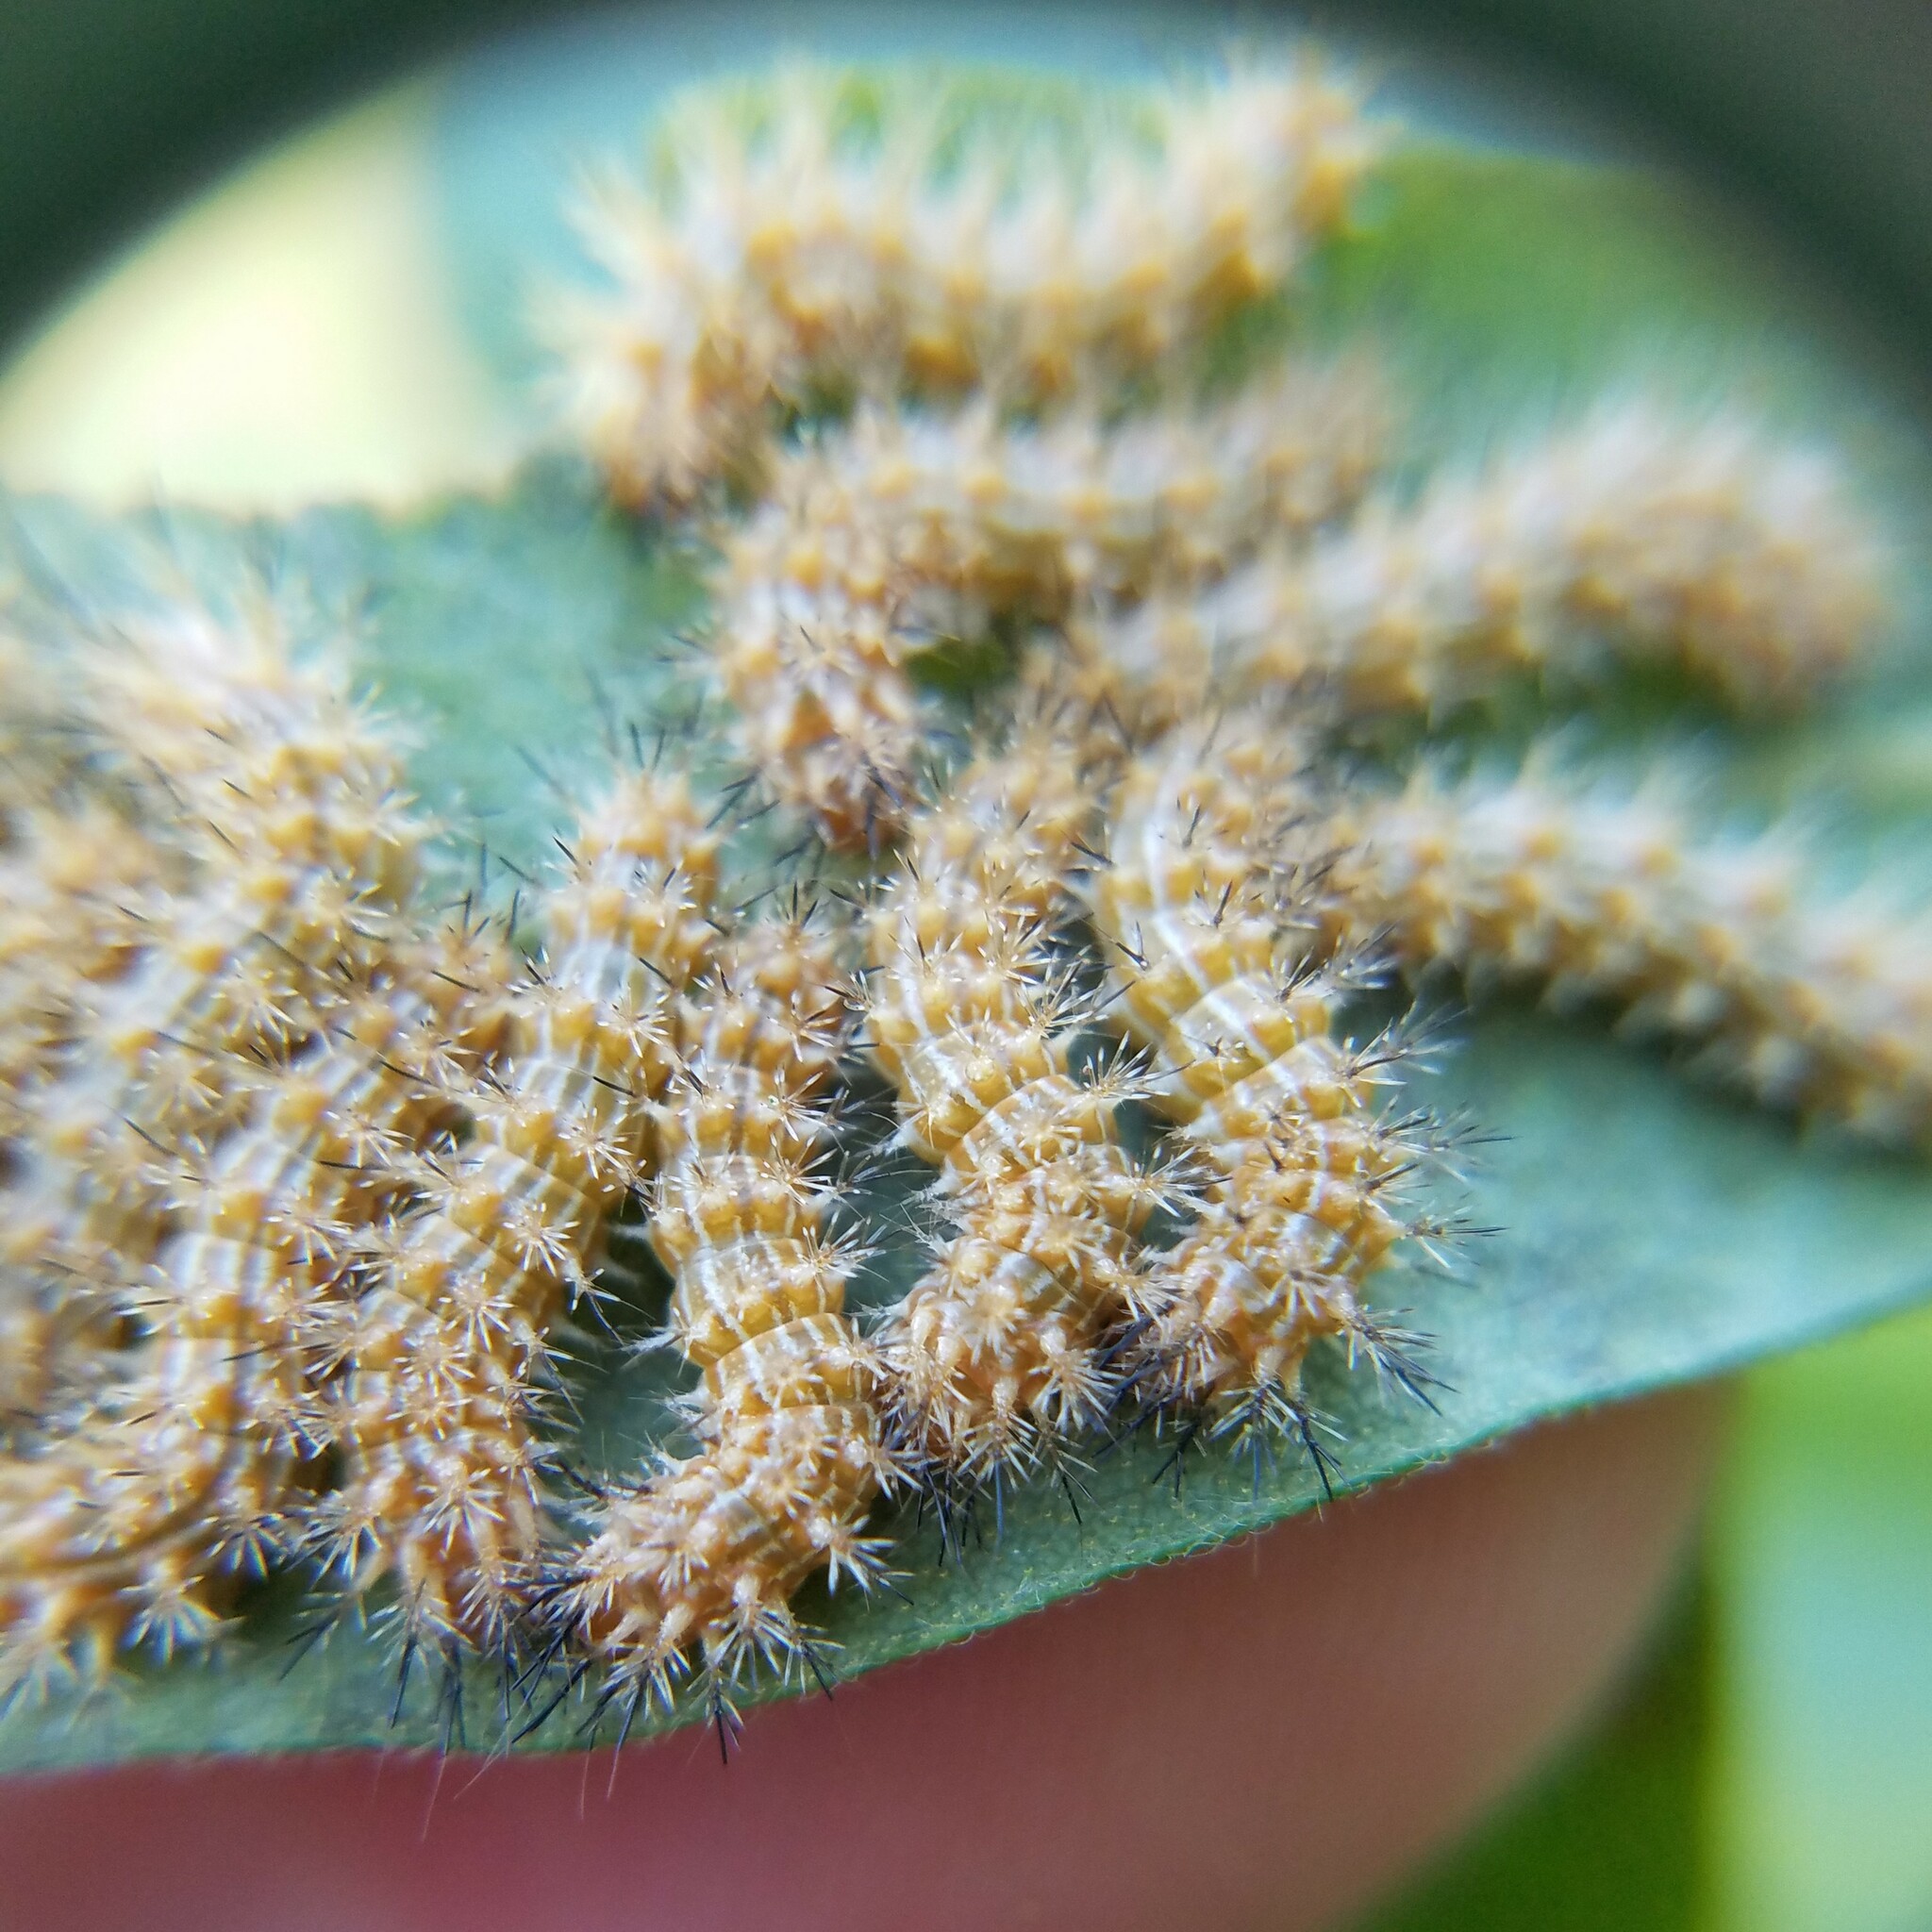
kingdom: Animalia
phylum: Arthropoda
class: Insecta
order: Lepidoptera
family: Saturniidae
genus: Automeris
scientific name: Automeris io
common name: Io moth
